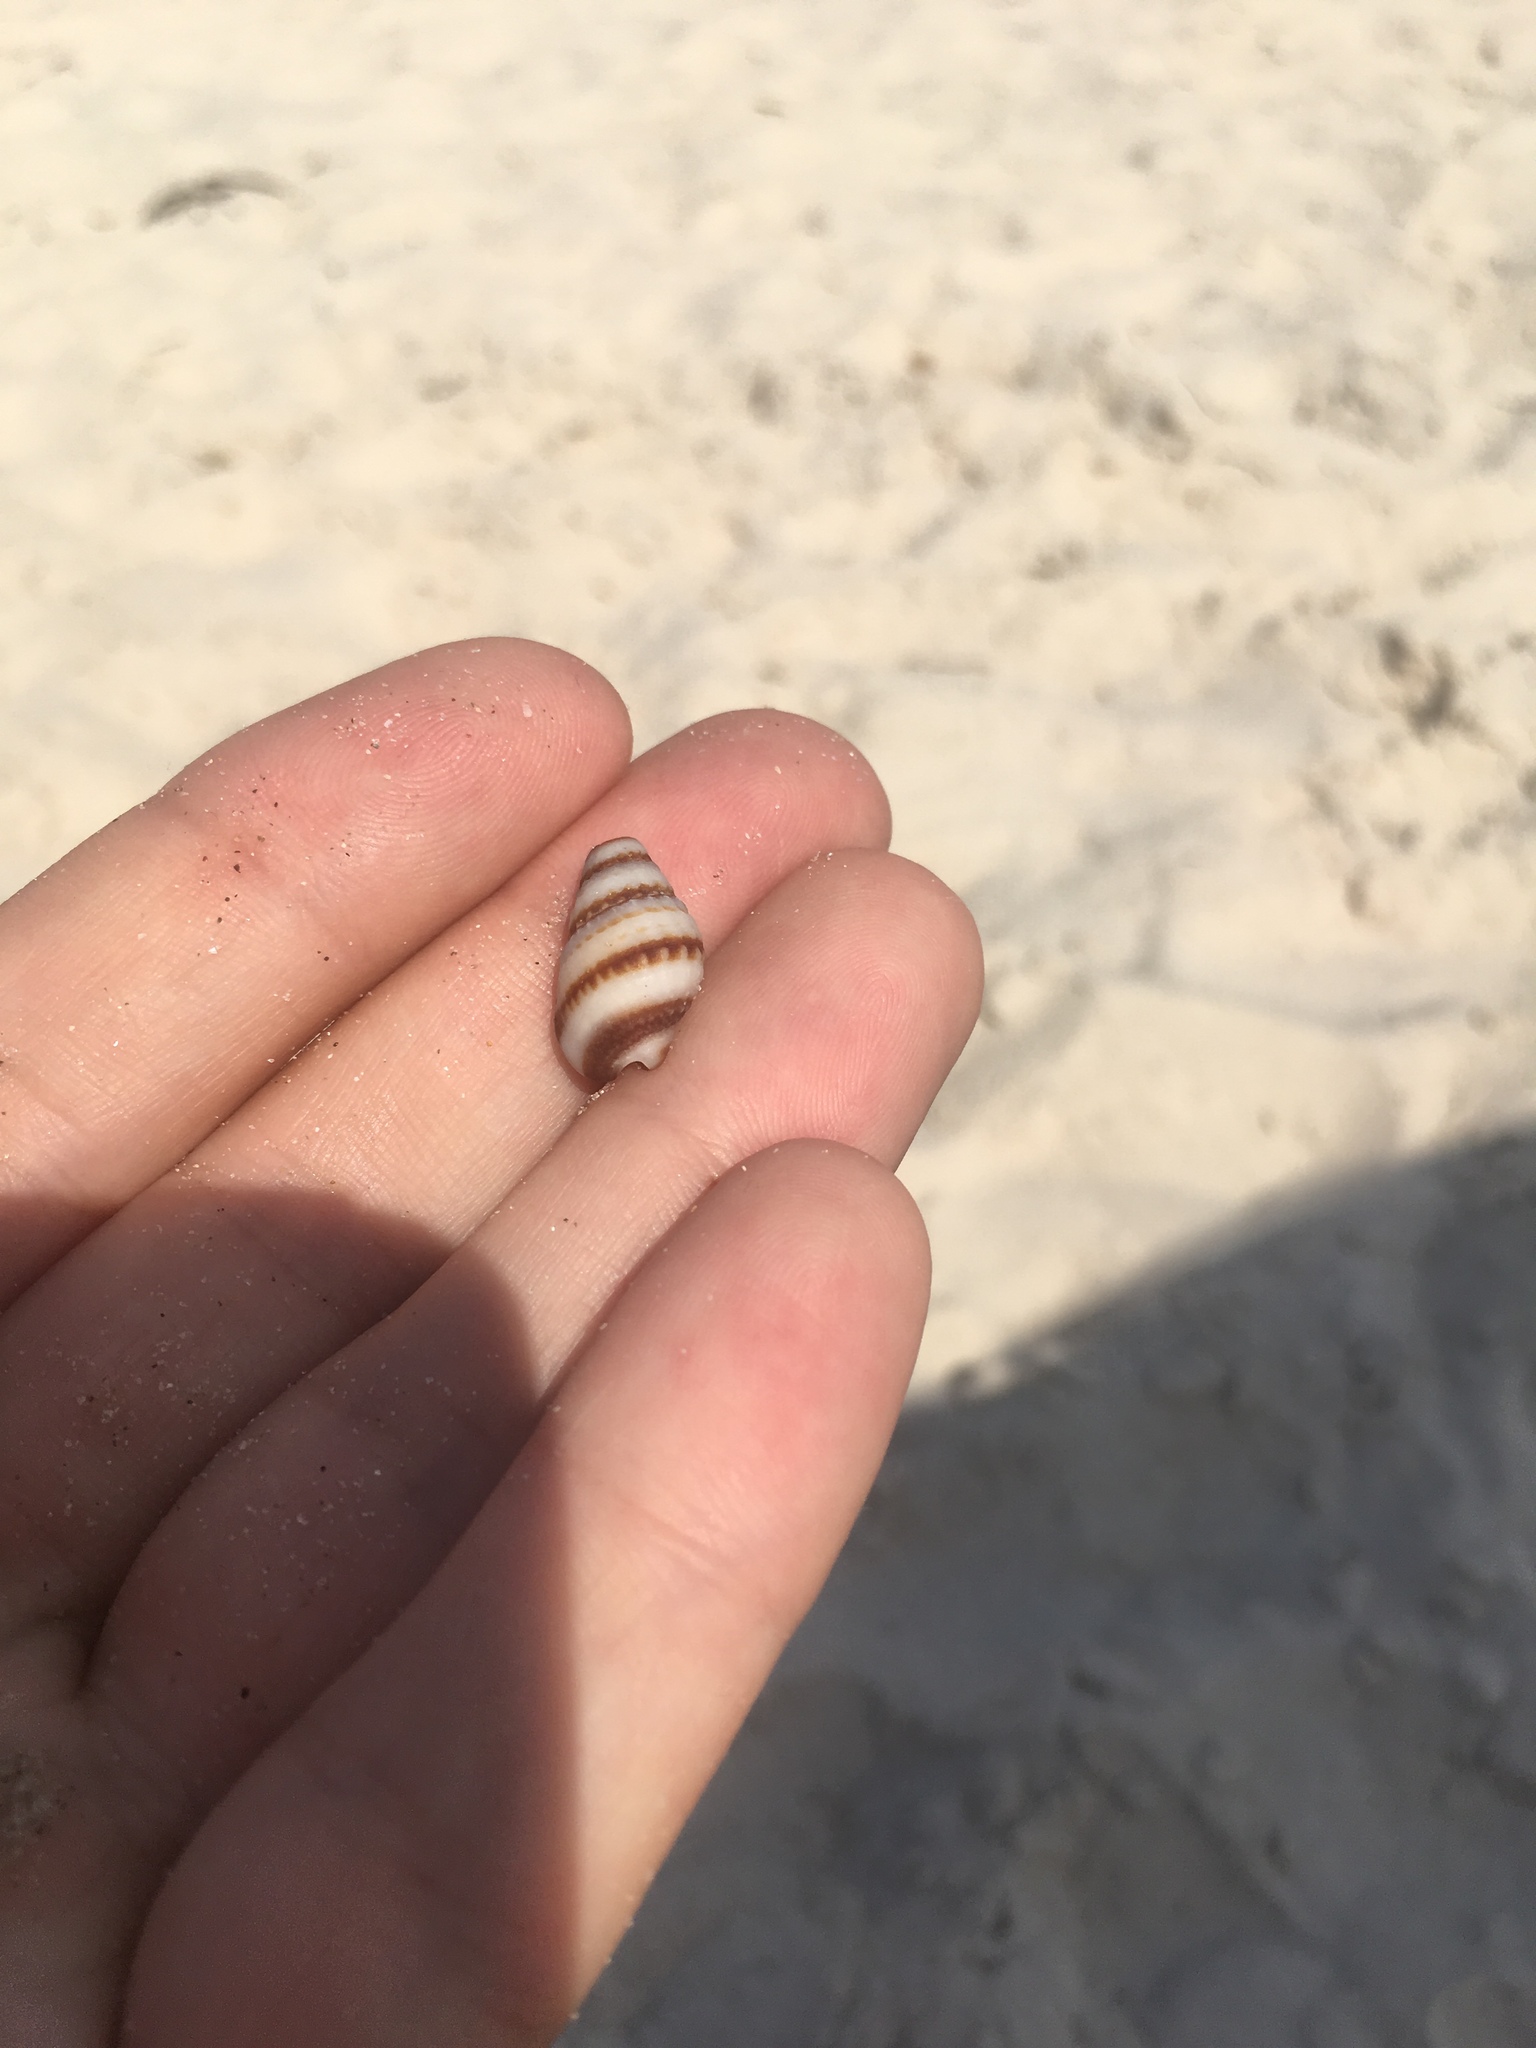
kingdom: Animalia
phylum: Mollusca
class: Gastropoda
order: Neogastropoda
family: Nassariidae
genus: Nassarius
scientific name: Nassarius pyrrhus
